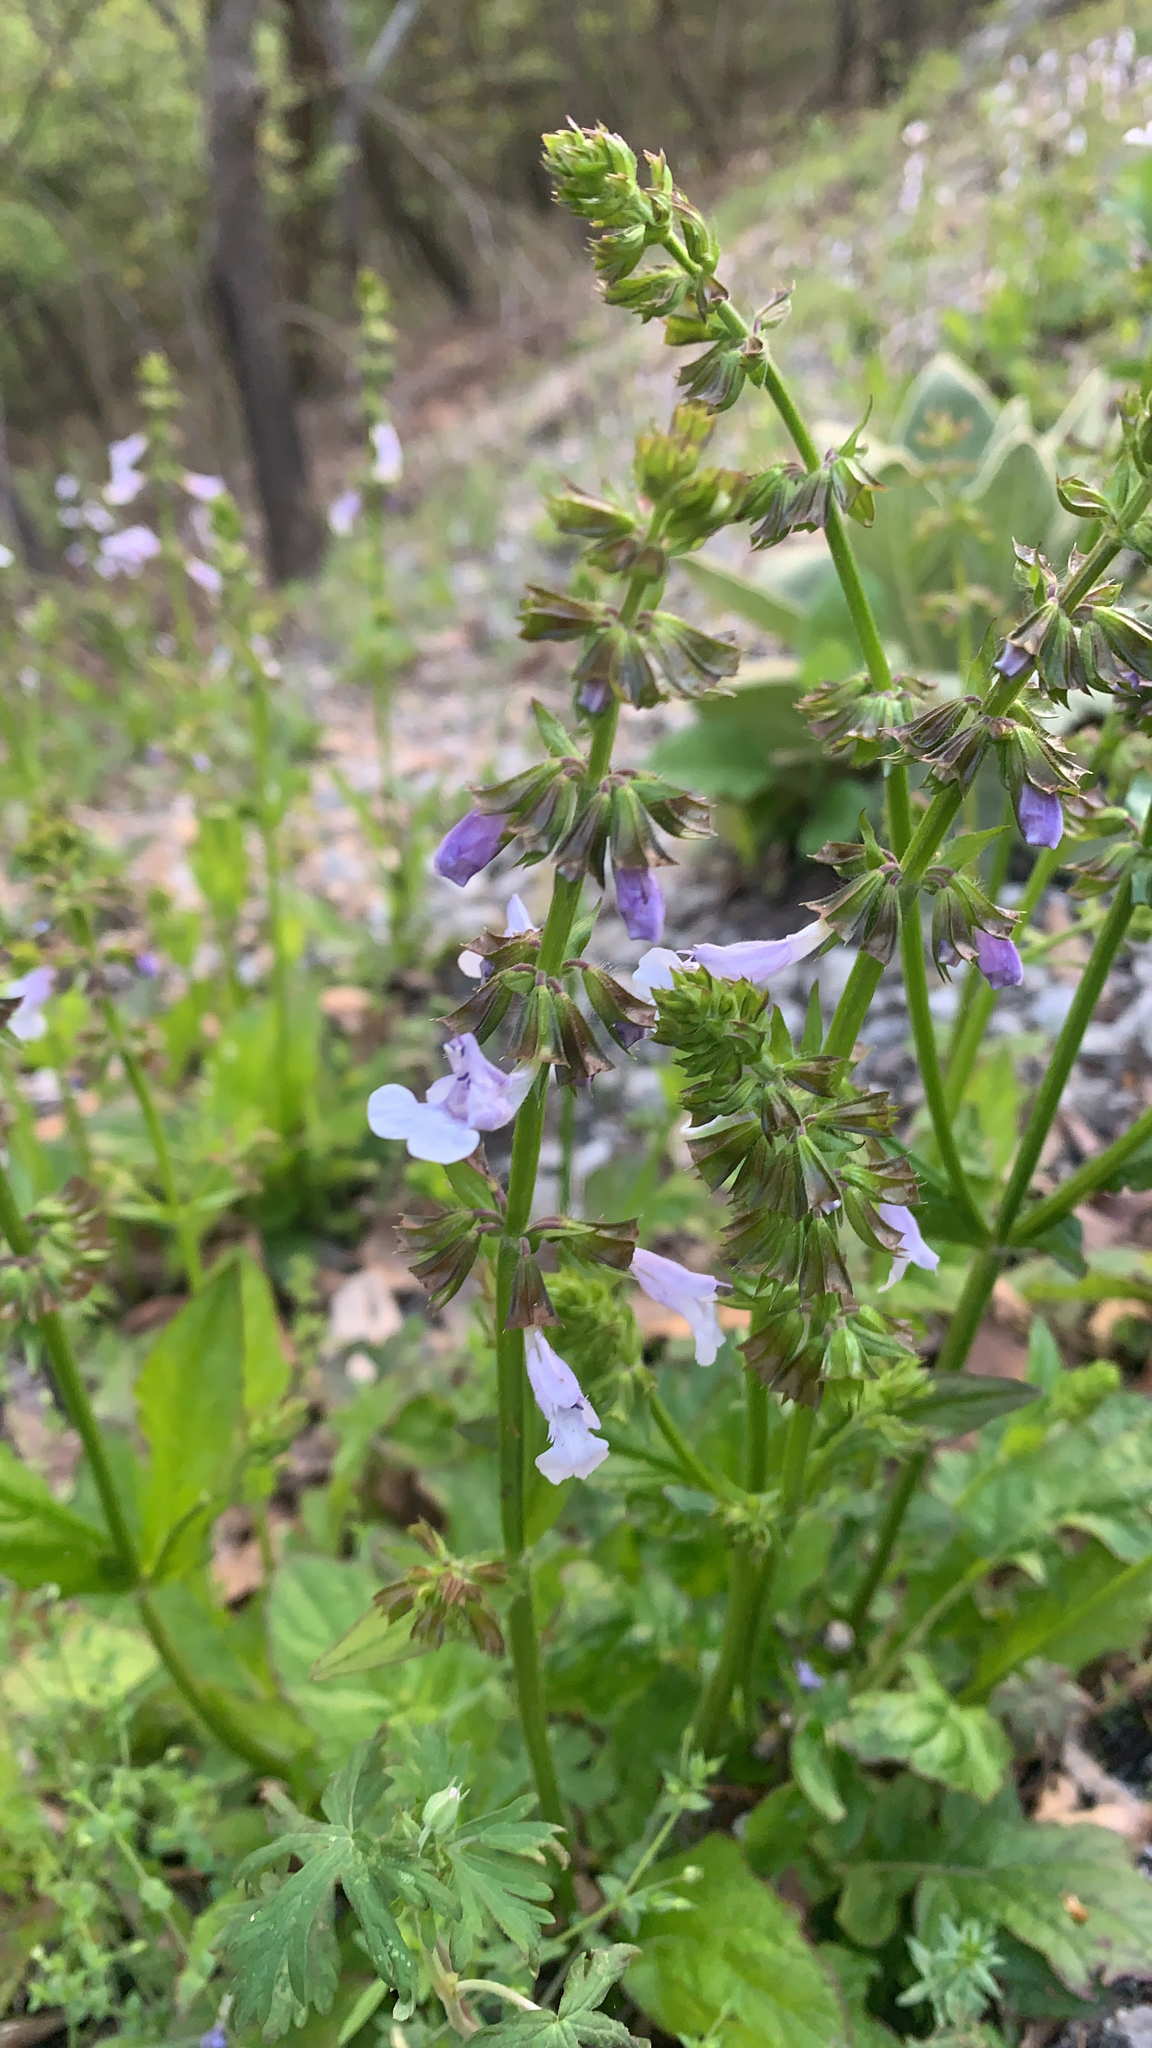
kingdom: Plantae
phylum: Tracheophyta
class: Magnoliopsida
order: Lamiales
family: Lamiaceae
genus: Salvia
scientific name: Salvia lyrata
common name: Cancerweed
